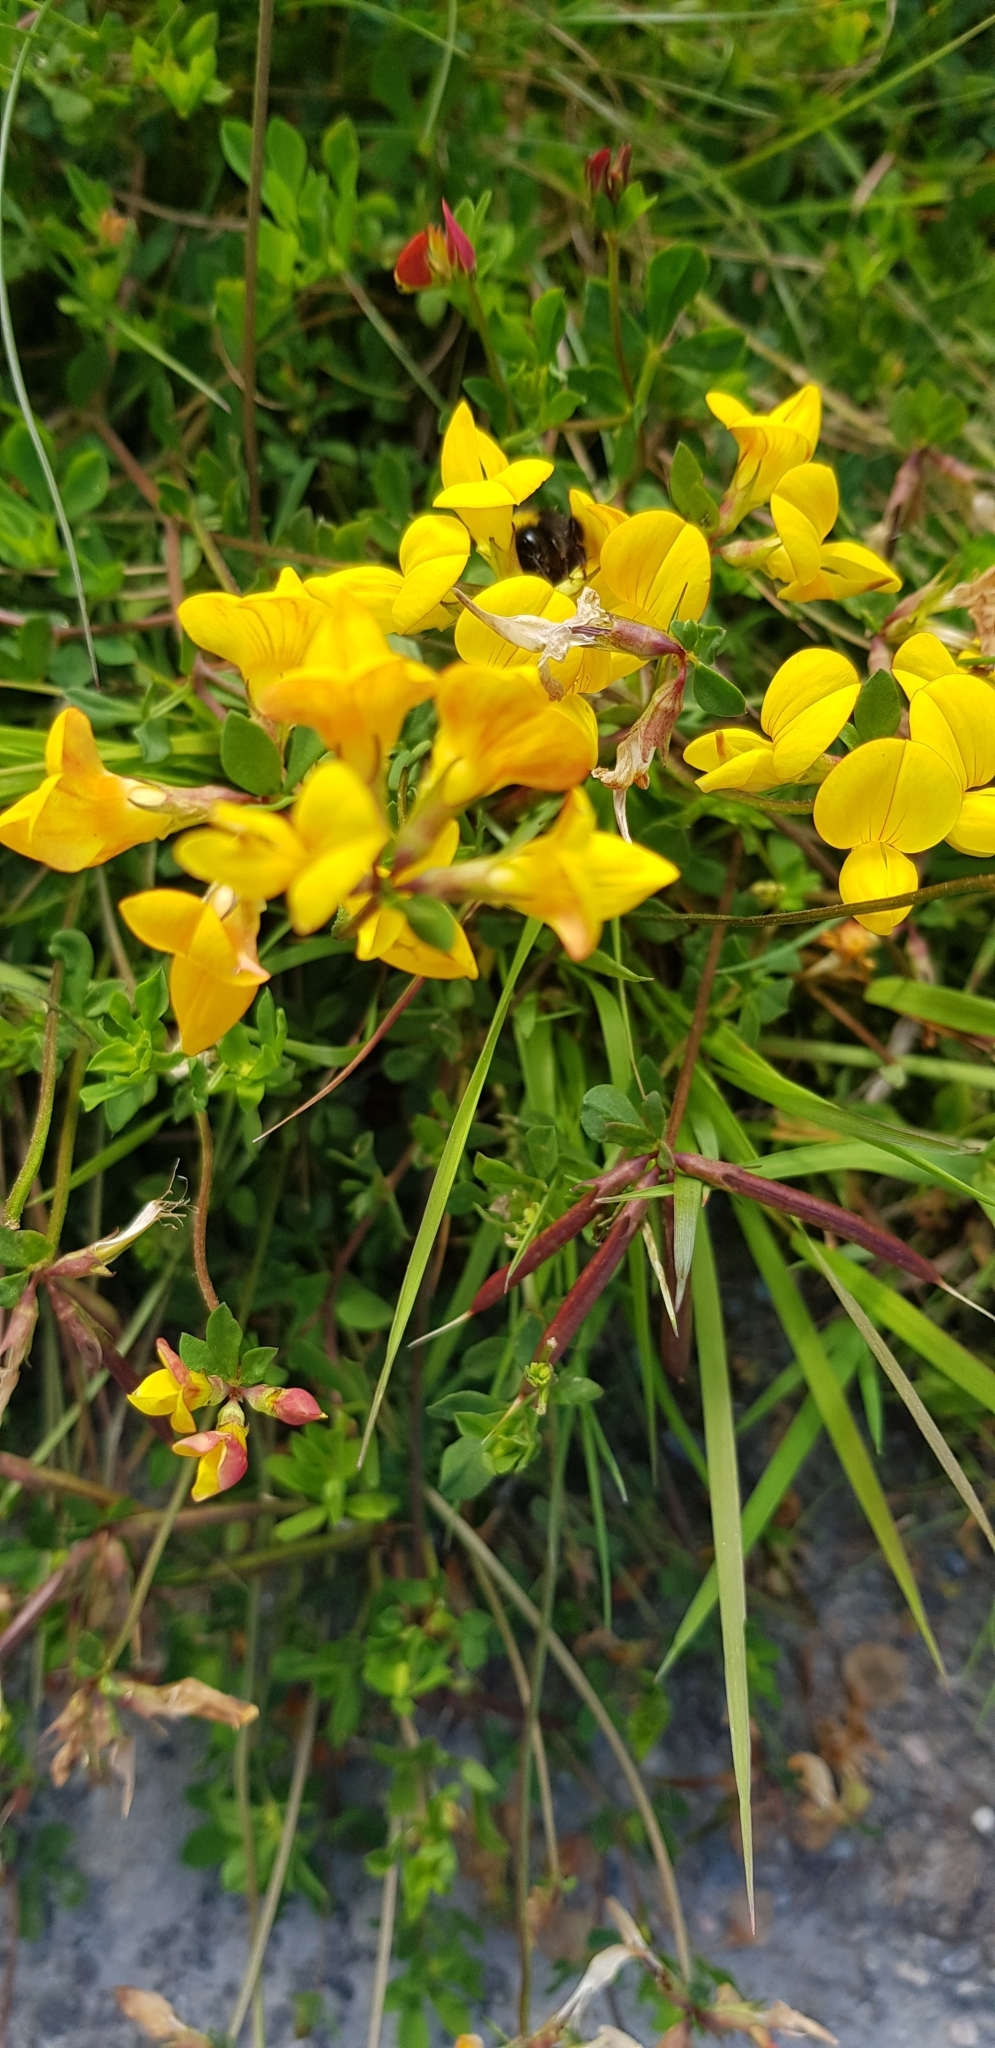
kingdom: Plantae
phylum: Tracheophyta
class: Magnoliopsida
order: Fabales
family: Fabaceae
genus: Lotus
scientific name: Lotus corniculatus
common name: Common bird's-foot-trefoil
